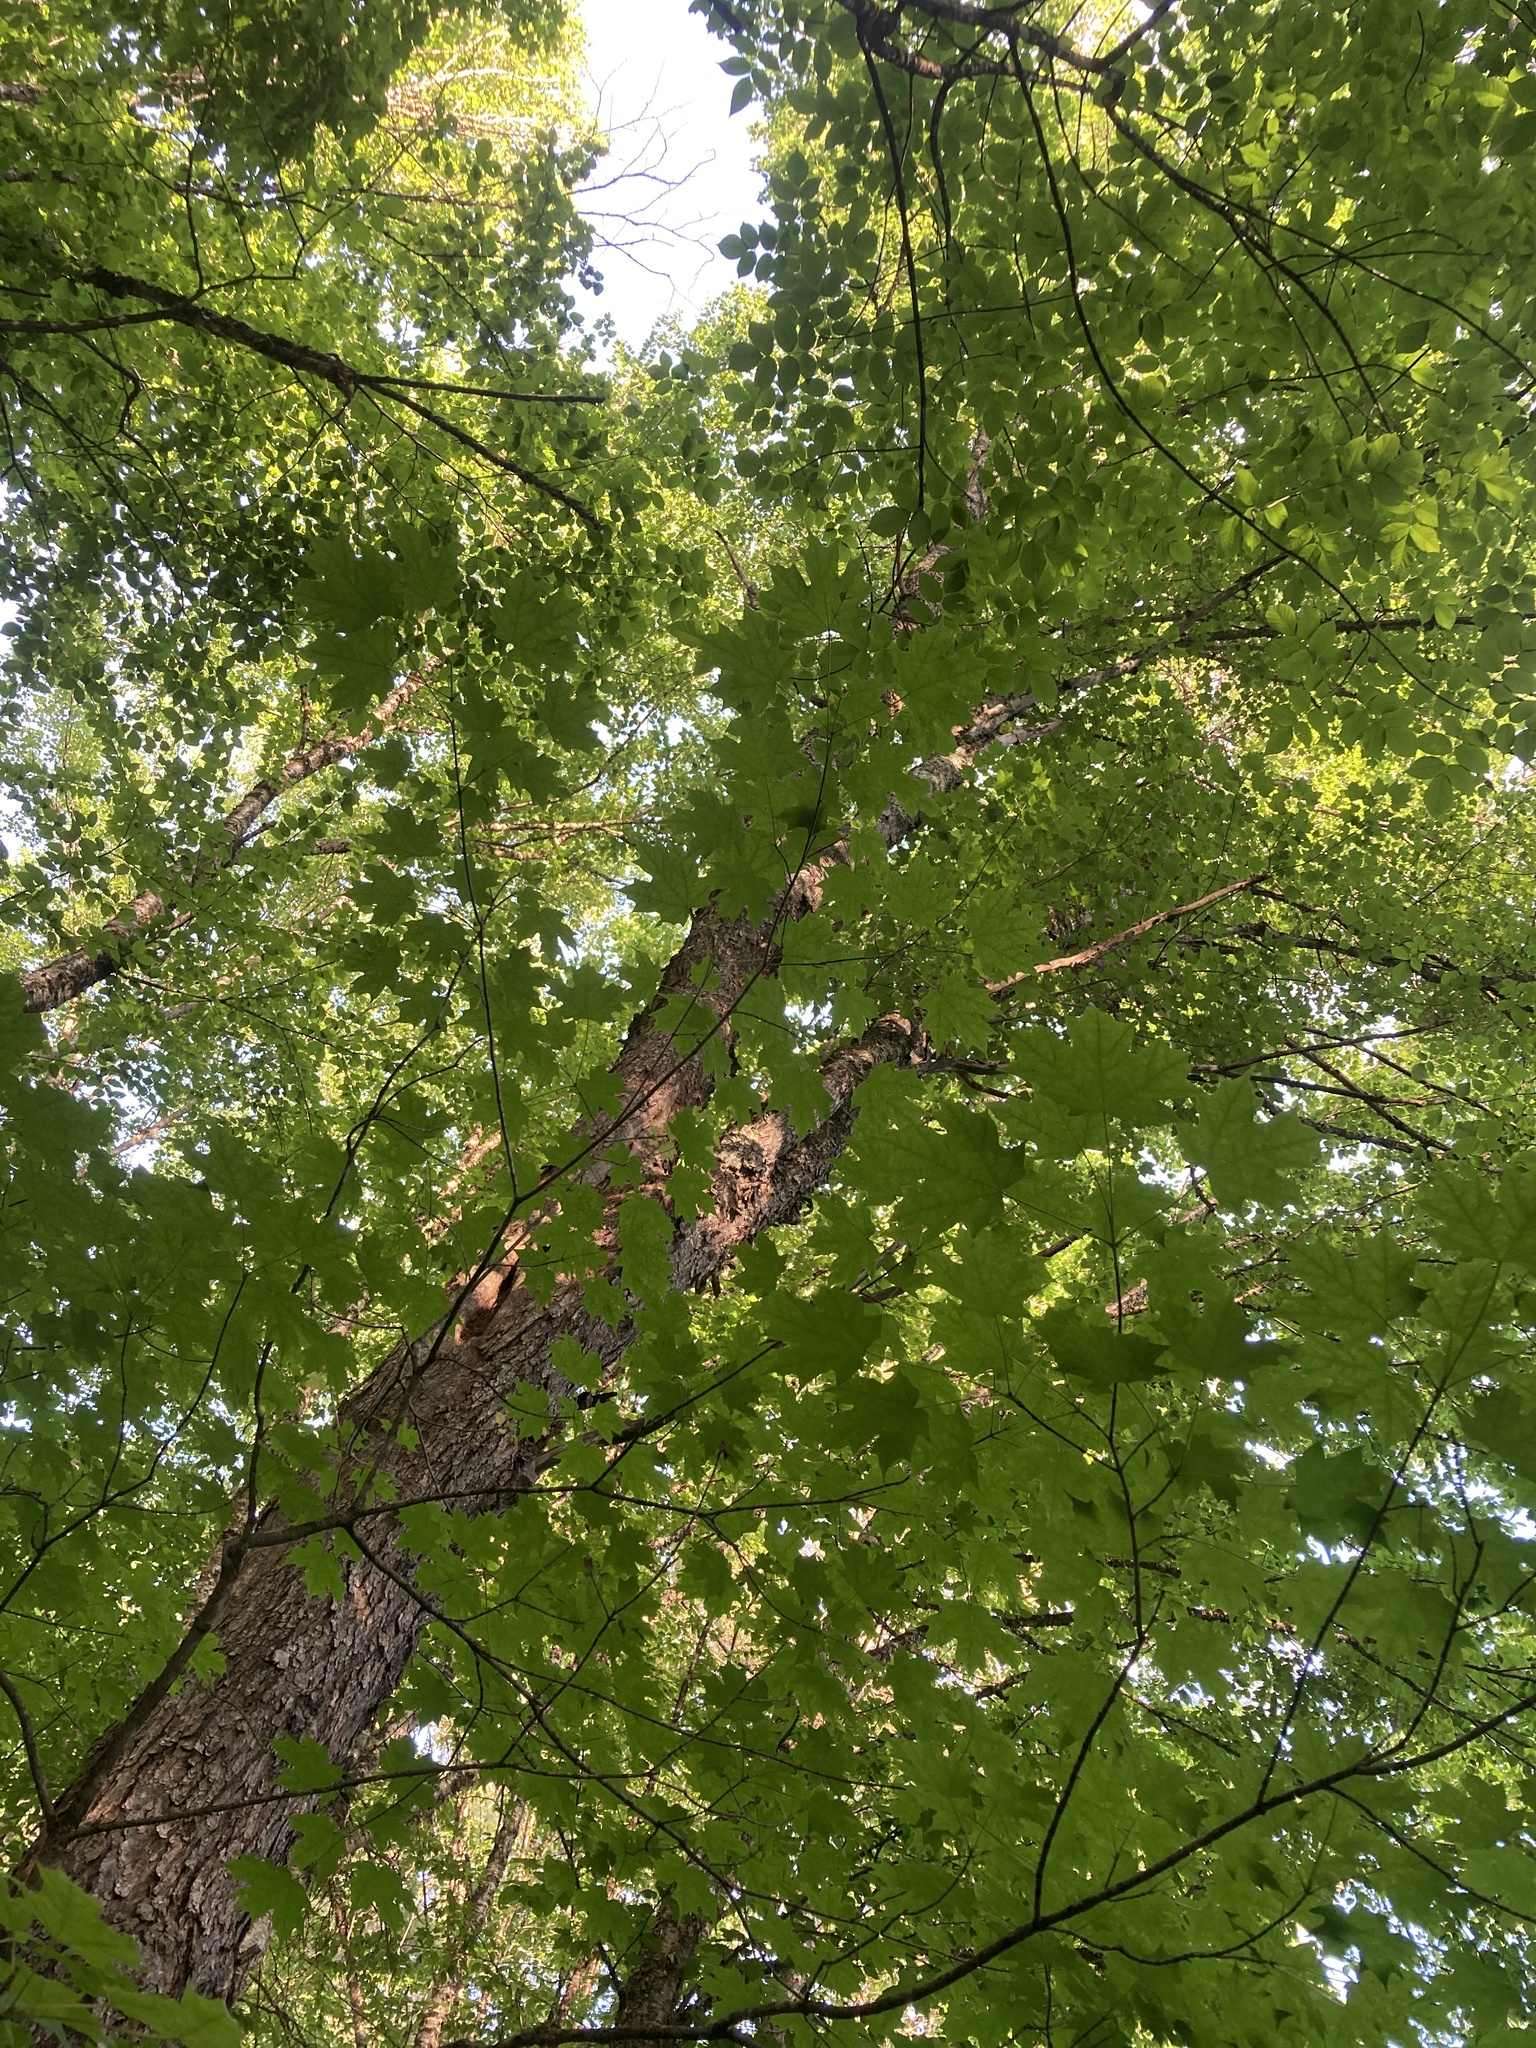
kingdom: Plantae
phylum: Tracheophyta
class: Magnoliopsida
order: Sapindales
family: Sapindaceae
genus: Acer
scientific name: Acer saccharum
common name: Sugar maple
